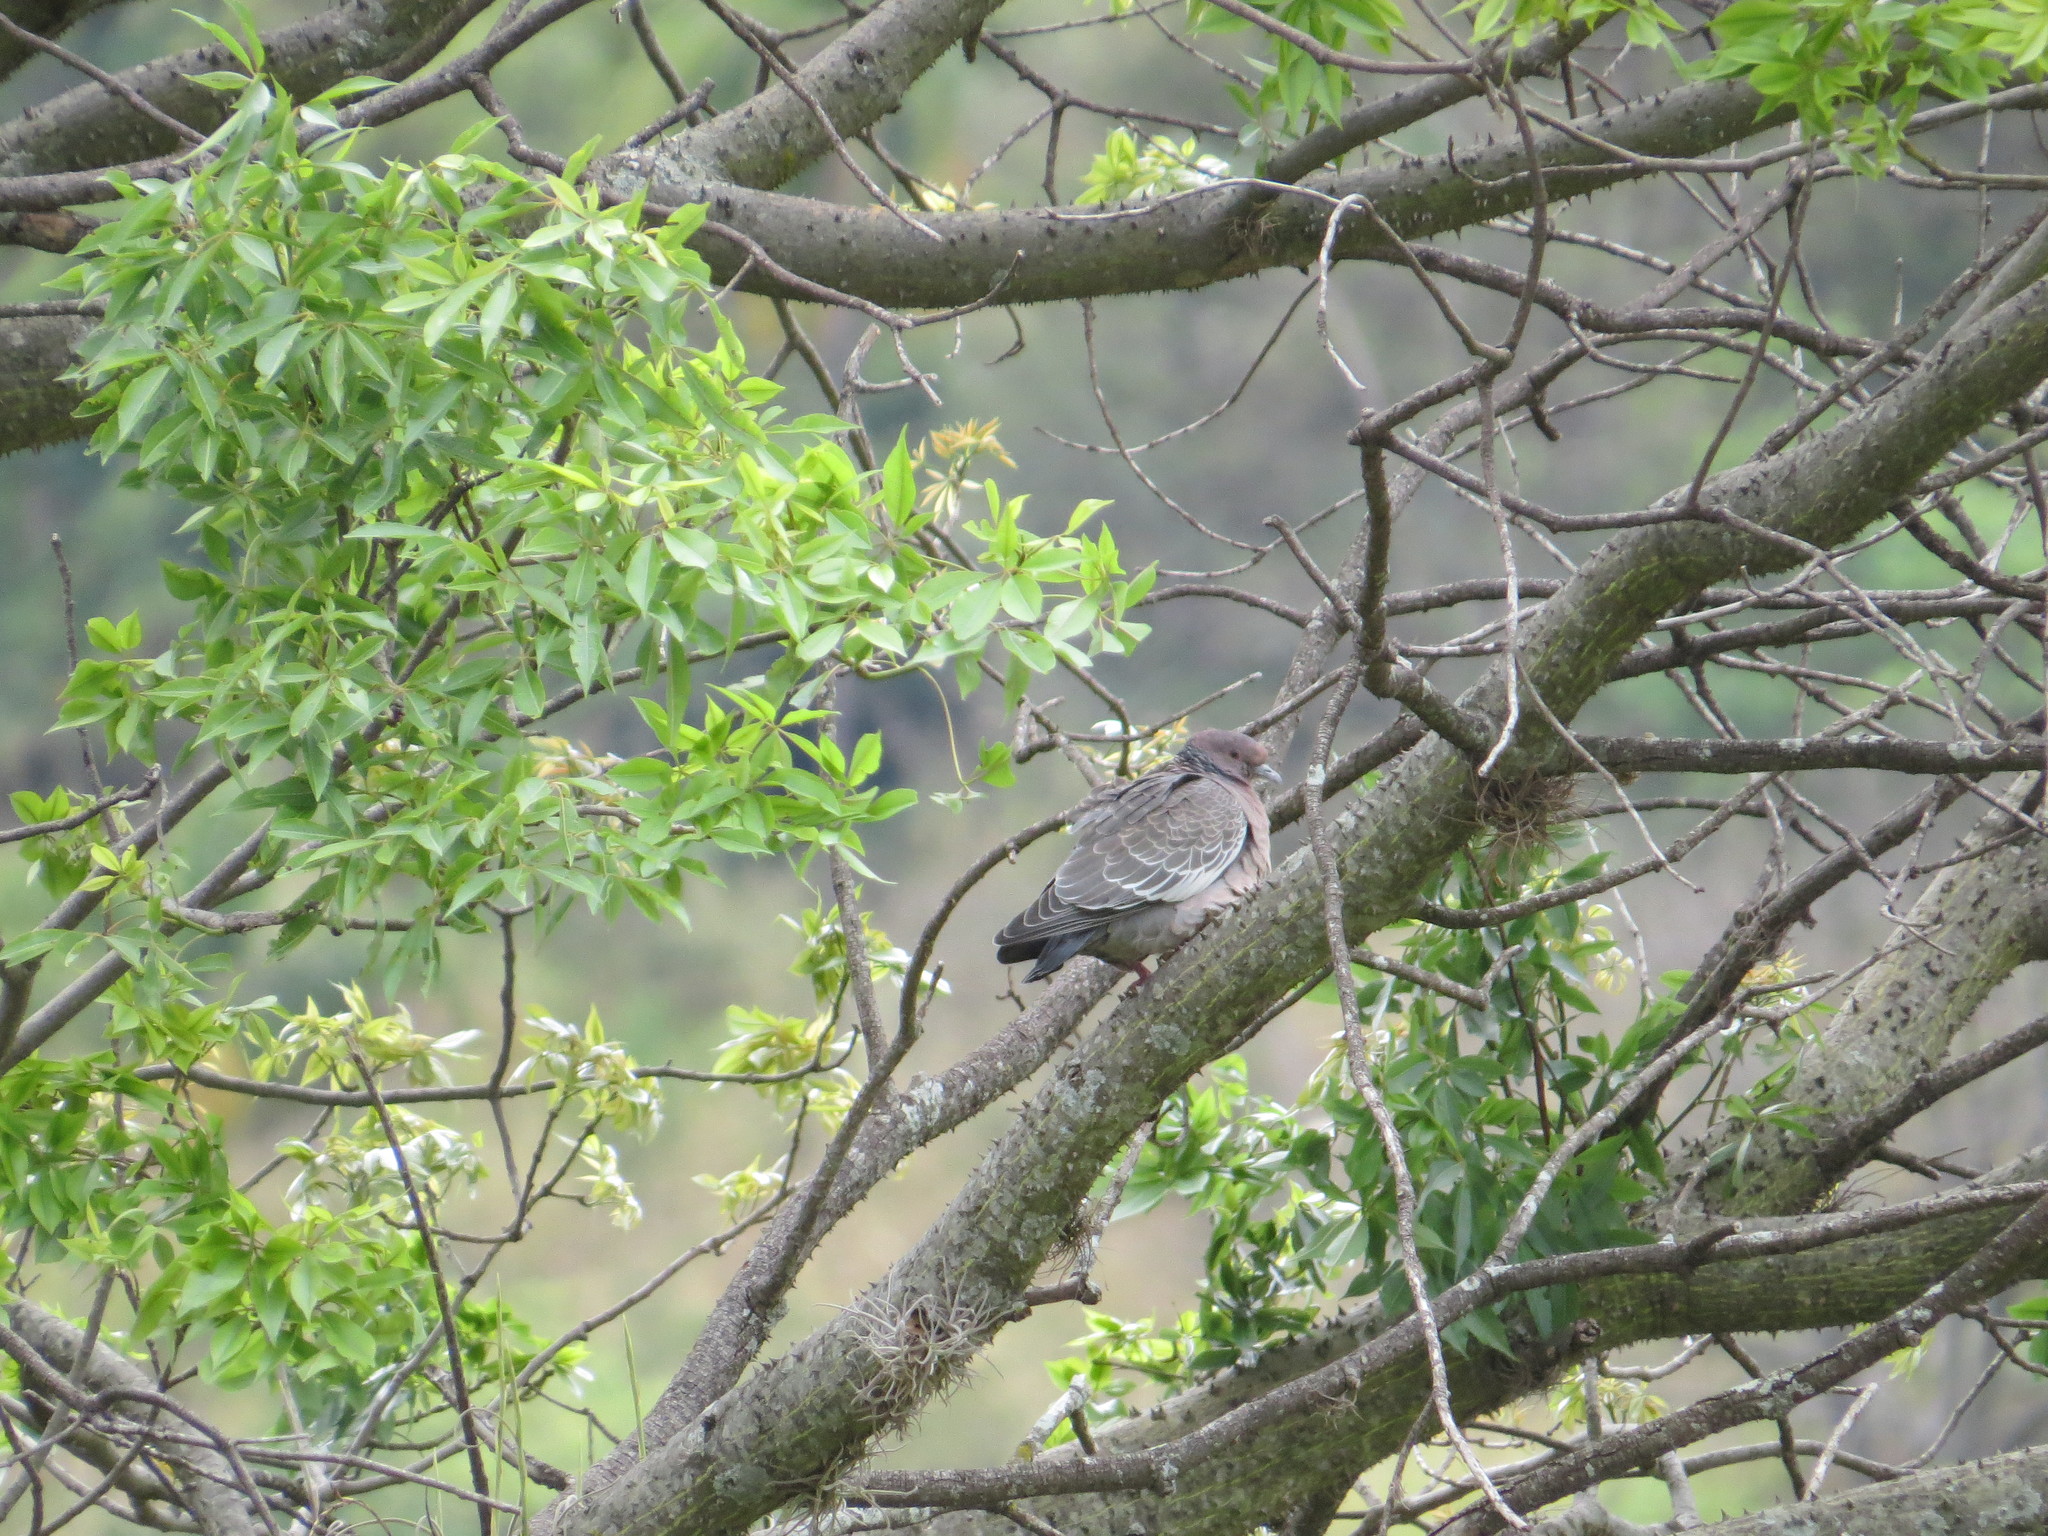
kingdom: Animalia
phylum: Chordata
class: Aves
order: Columbiformes
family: Columbidae
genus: Patagioenas
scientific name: Patagioenas picazuro
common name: Picazuro pigeon
